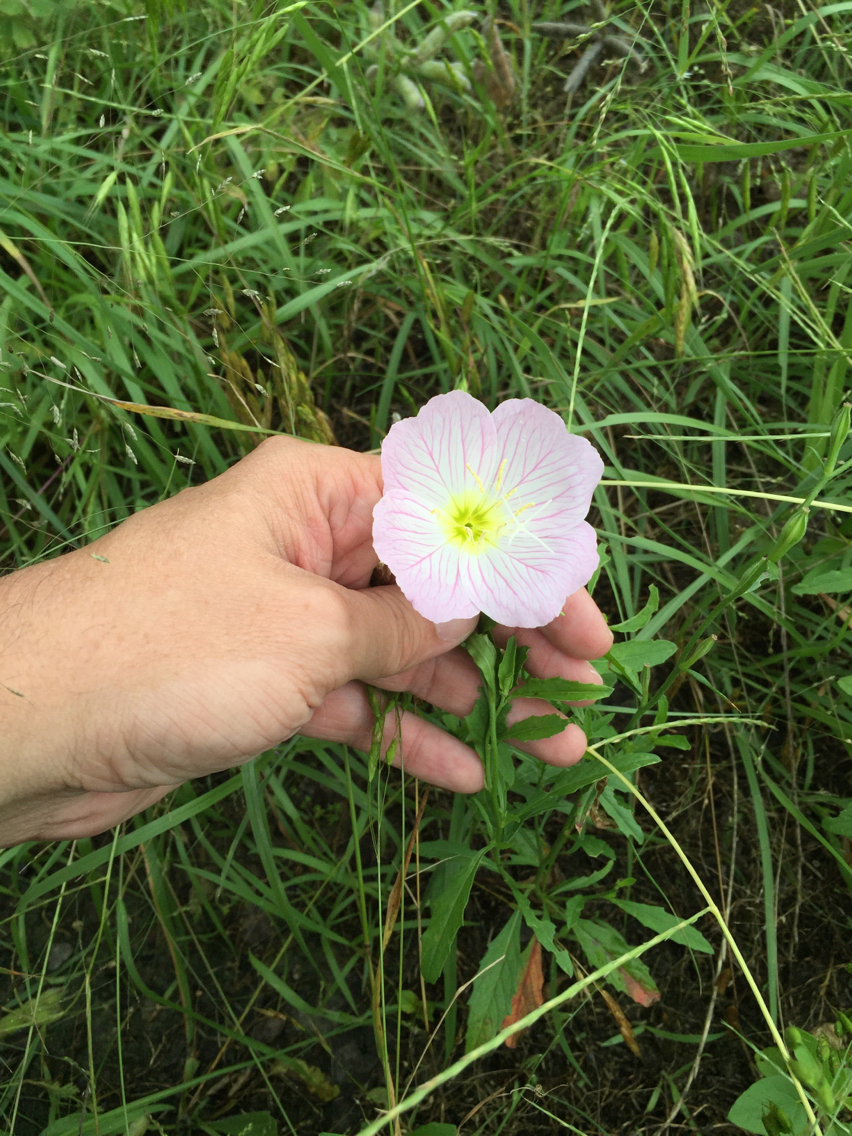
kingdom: Plantae
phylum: Tracheophyta
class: Magnoliopsida
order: Myrtales
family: Onagraceae
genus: Oenothera
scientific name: Oenothera speciosa
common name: White evening-primrose
